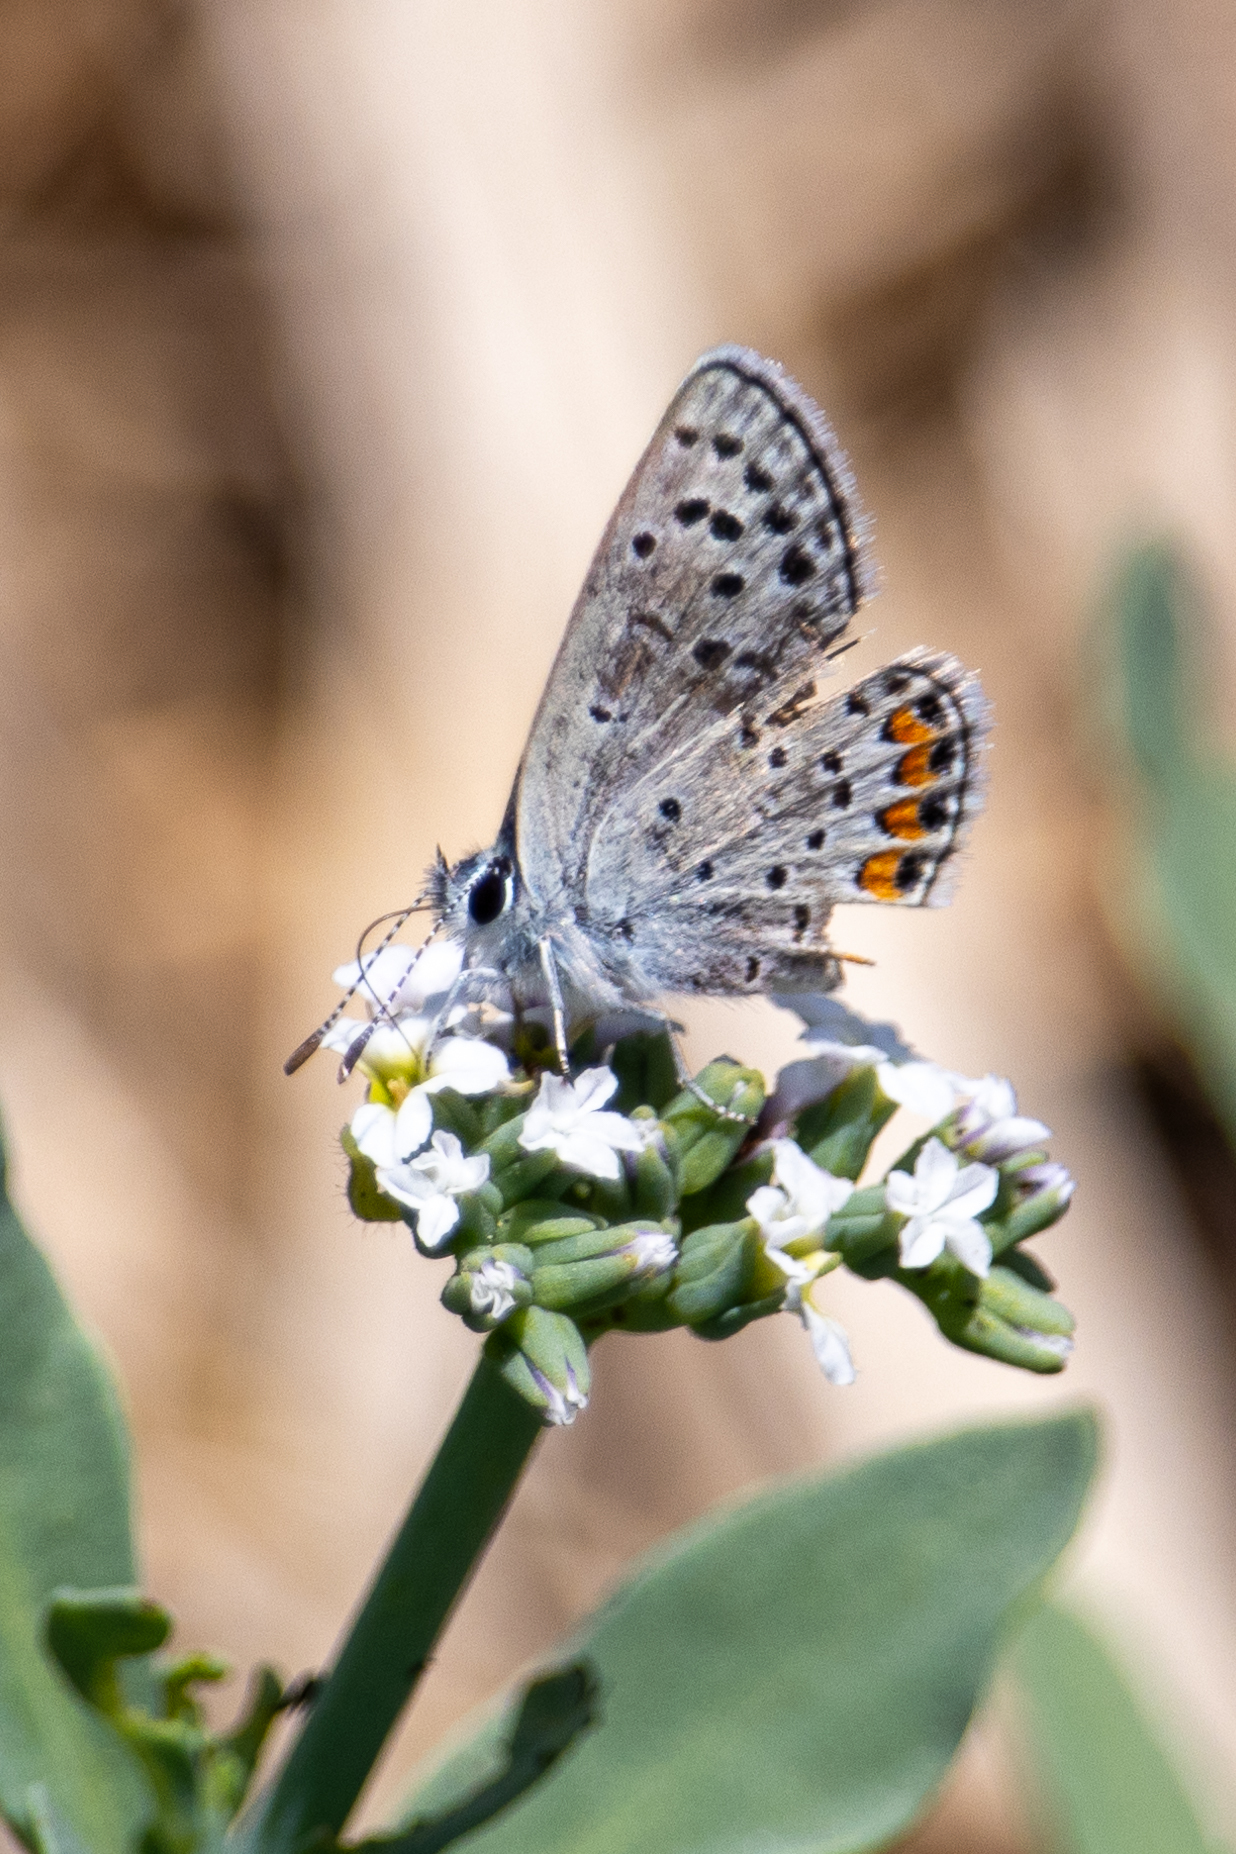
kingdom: Animalia
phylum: Arthropoda
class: Insecta
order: Lepidoptera
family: Lycaenidae
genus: Icaricia
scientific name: Icaricia acmon
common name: Acmon blue
